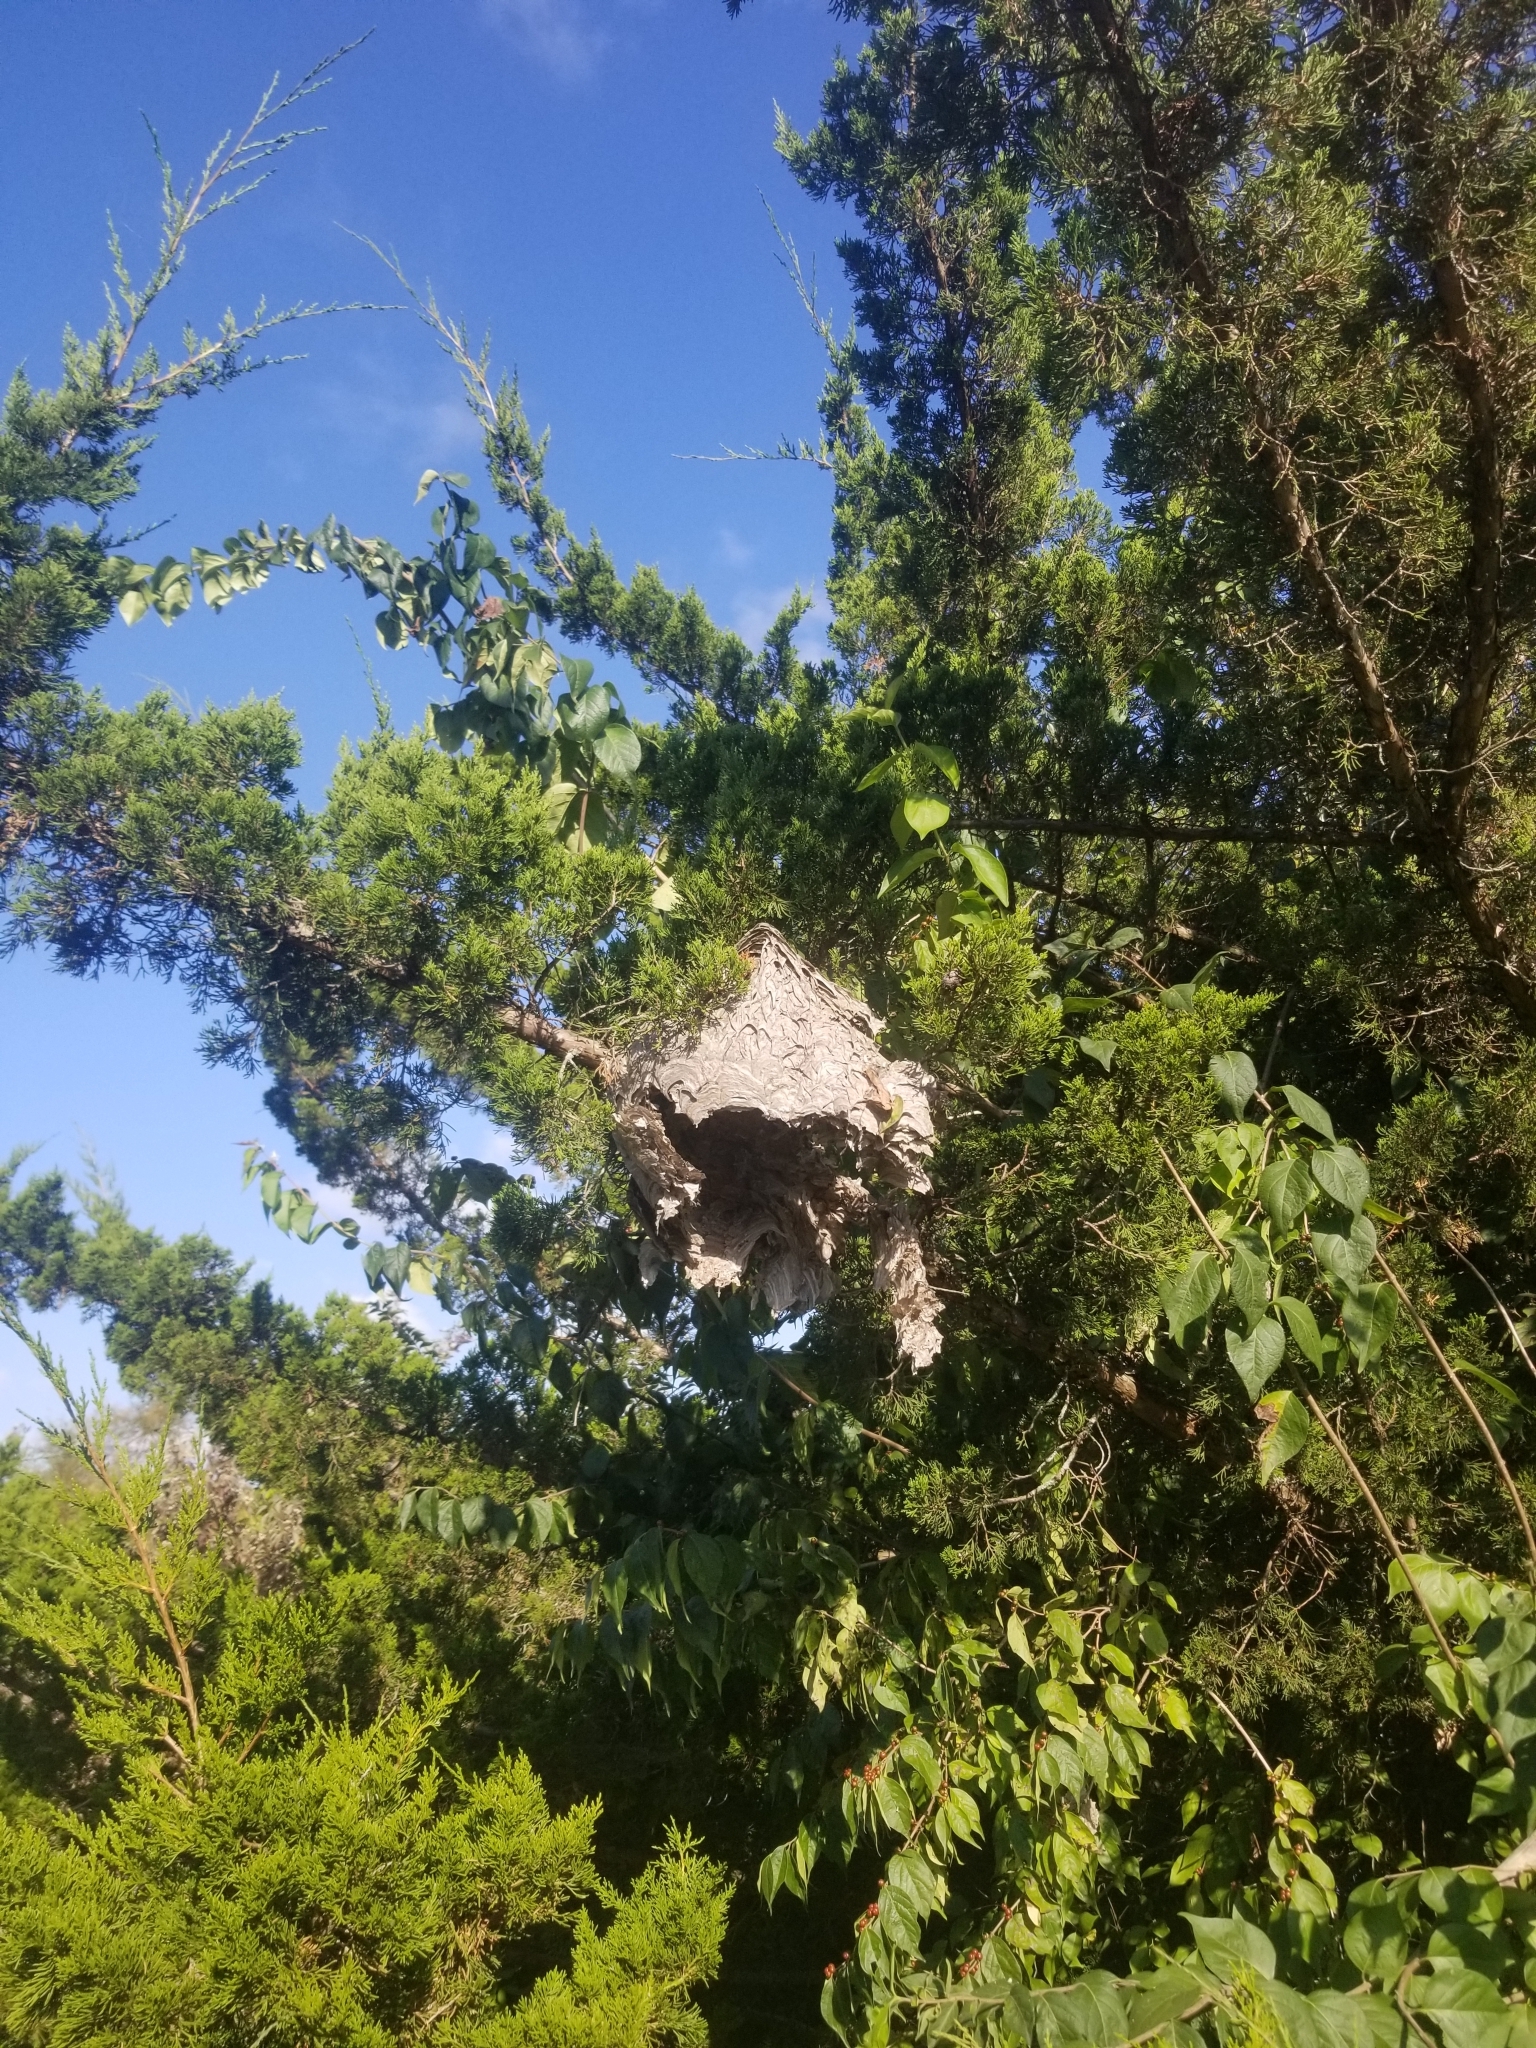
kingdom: Animalia
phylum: Arthropoda
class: Insecta
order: Hymenoptera
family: Vespidae
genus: Dolichovespula
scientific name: Dolichovespula maculata
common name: Bald-faced hornet
